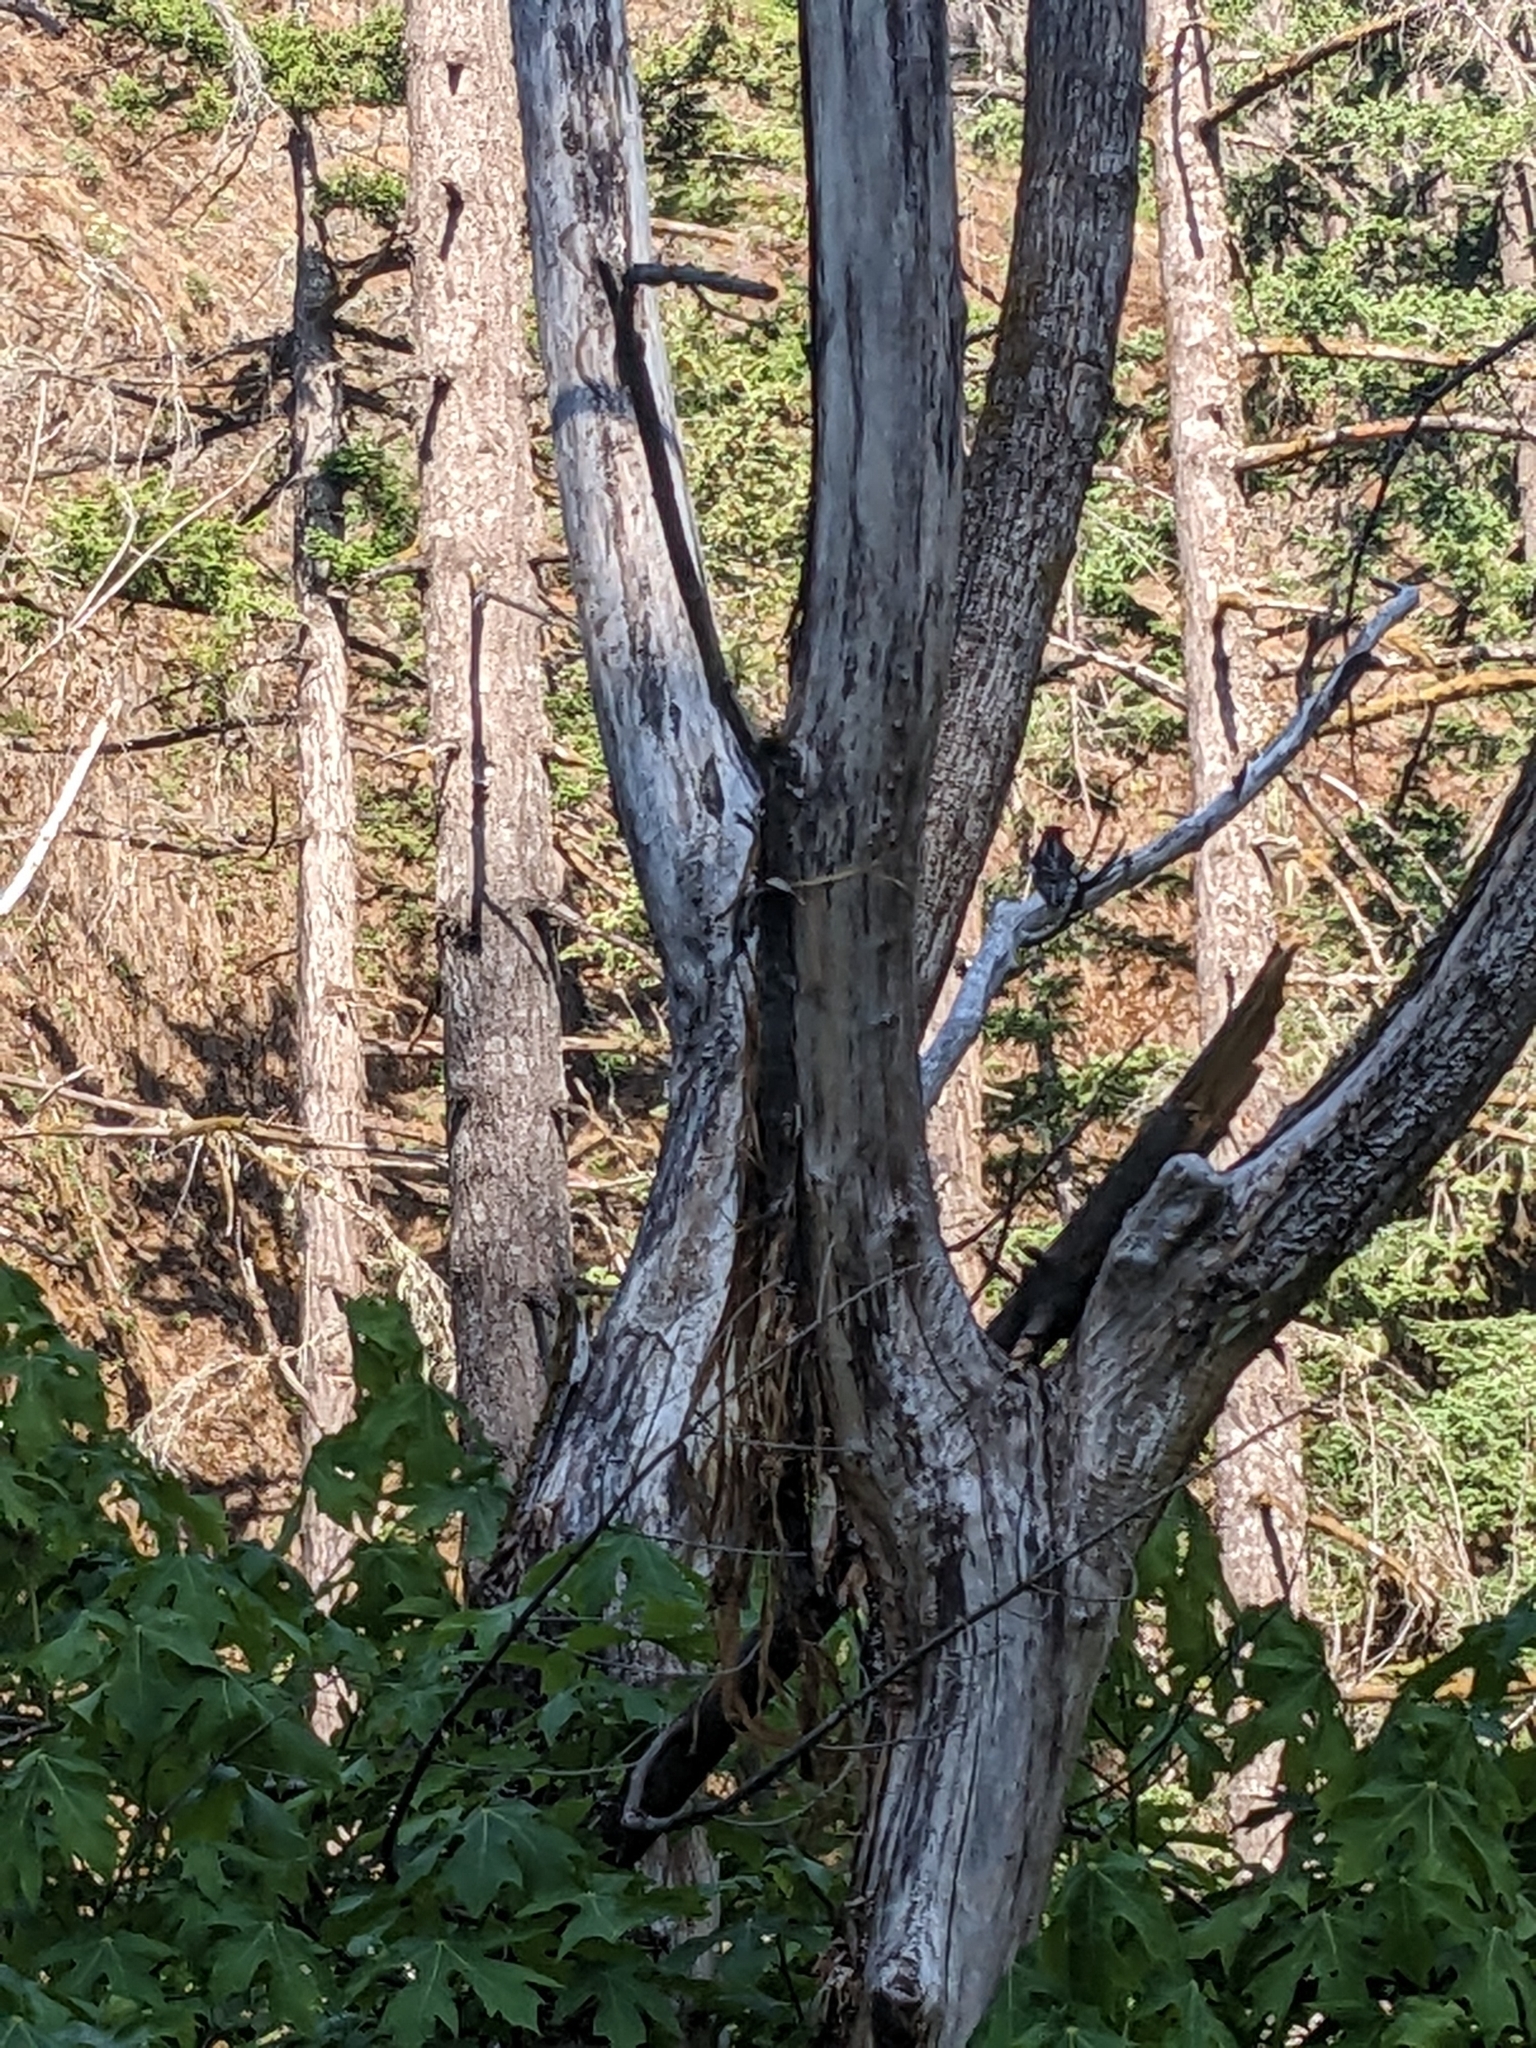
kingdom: Animalia
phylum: Chordata
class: Aves
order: Piciformes
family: Picidae
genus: Sphyrapicus
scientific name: Sphyrapicus ruber
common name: Red-breasted sapsucker
